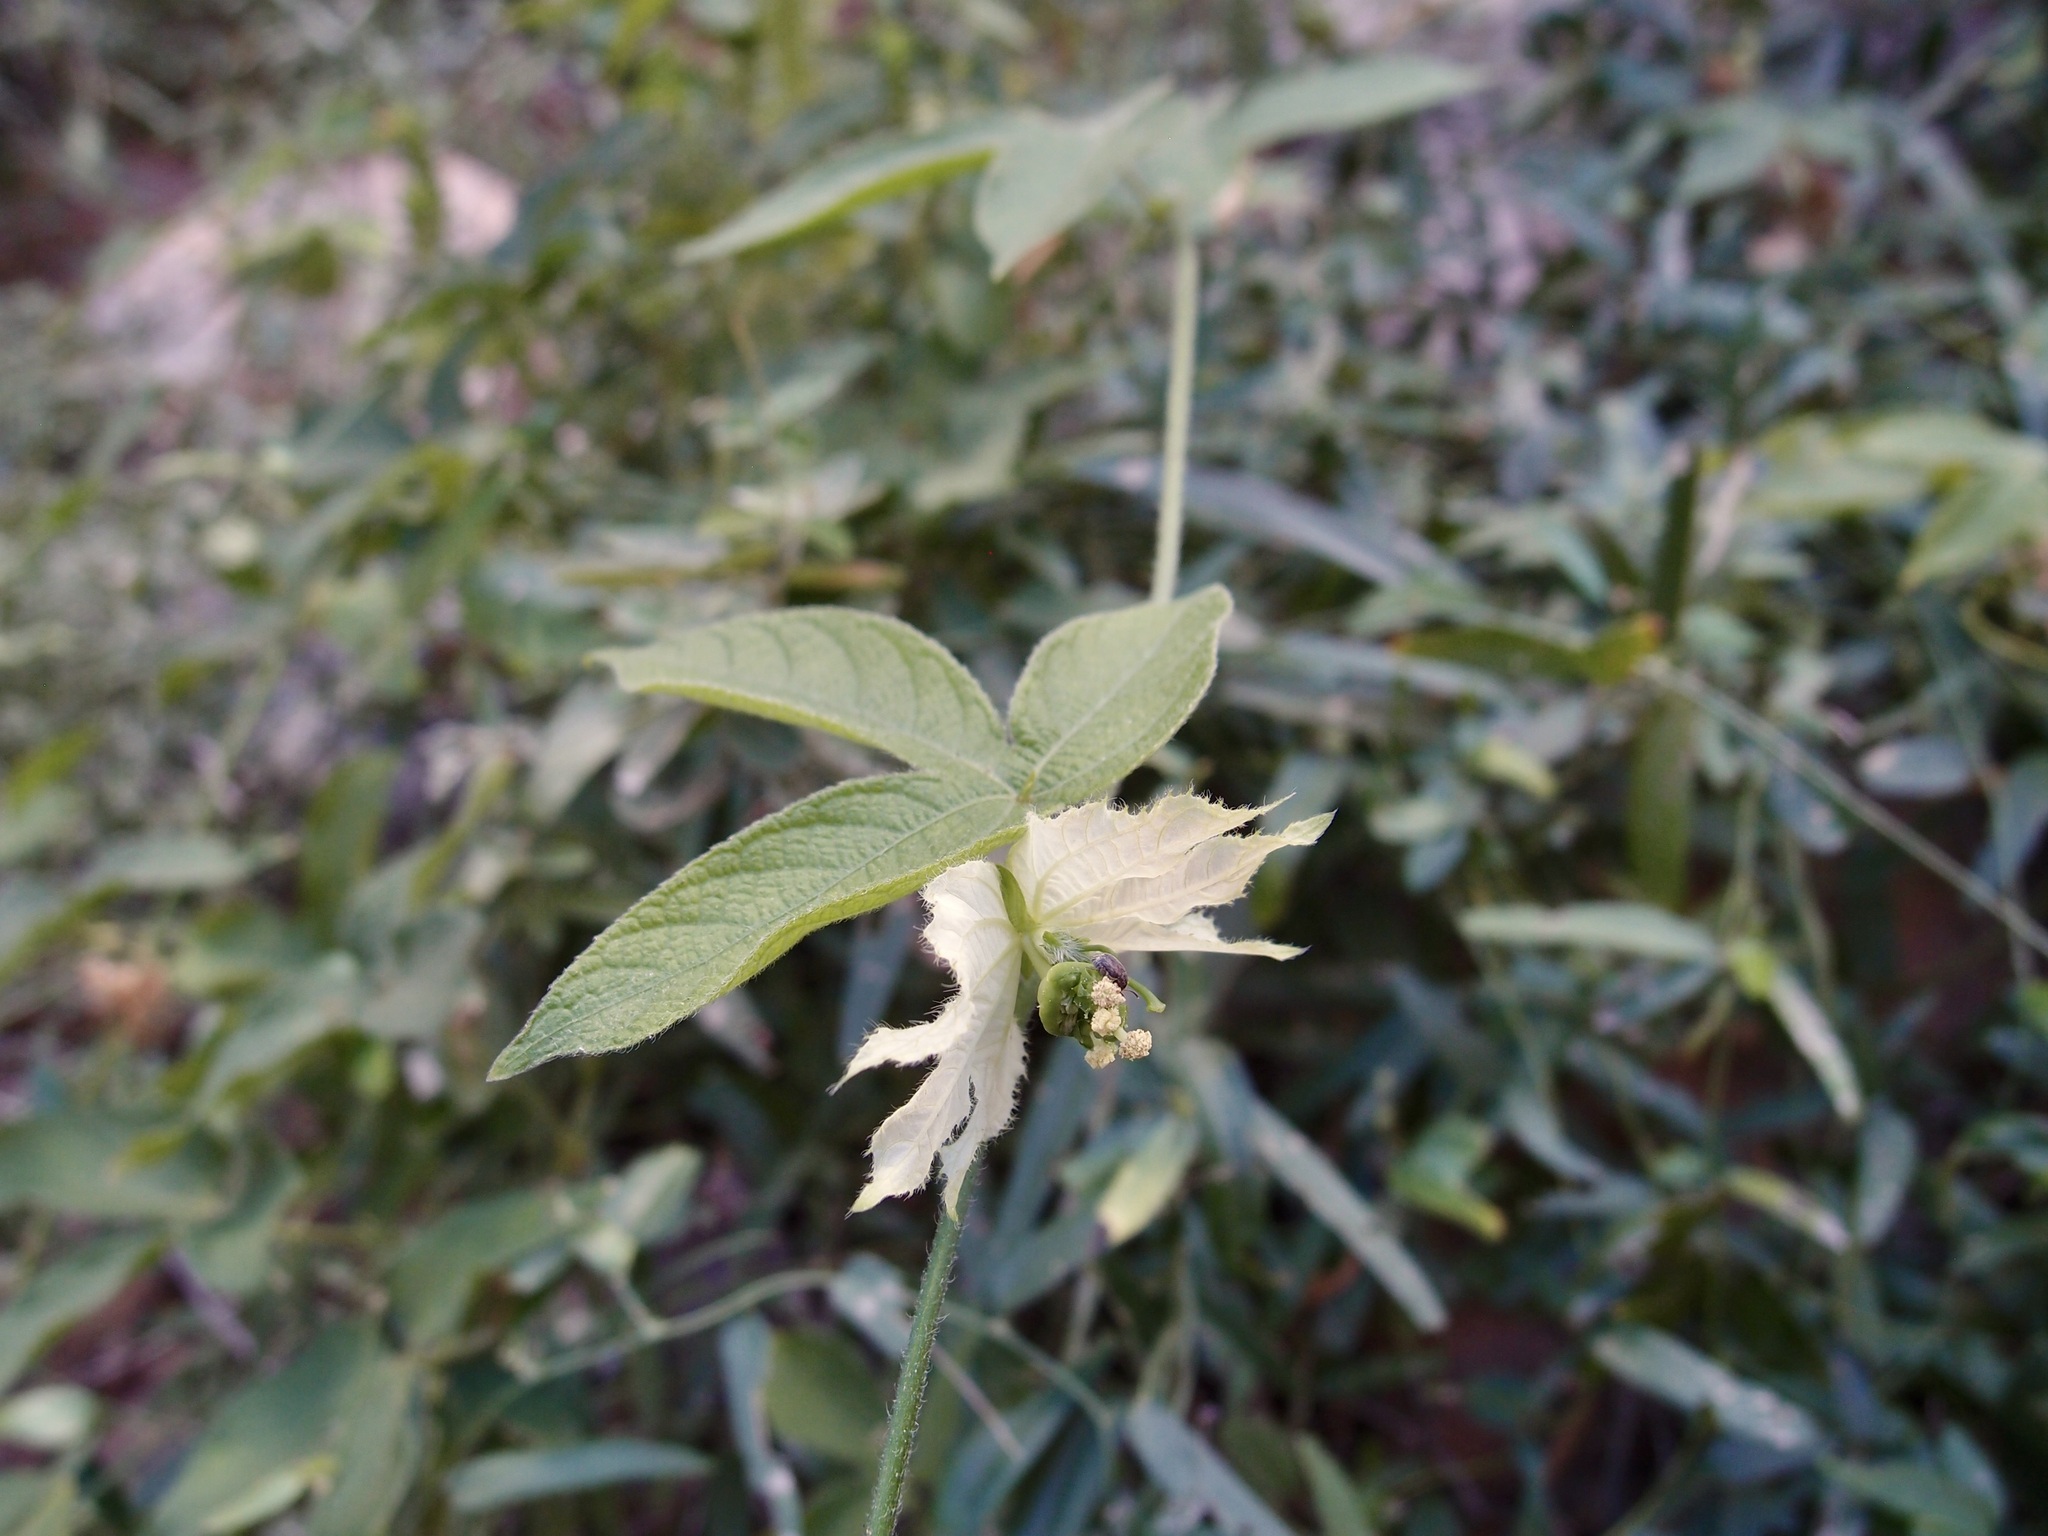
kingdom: Plantae
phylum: Tracheophyta
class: Magnoliopsida
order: Malpighiales
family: Euphorbiaceae
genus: Dalechampia
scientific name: Dalechampia scandens
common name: Spurgecreeper
